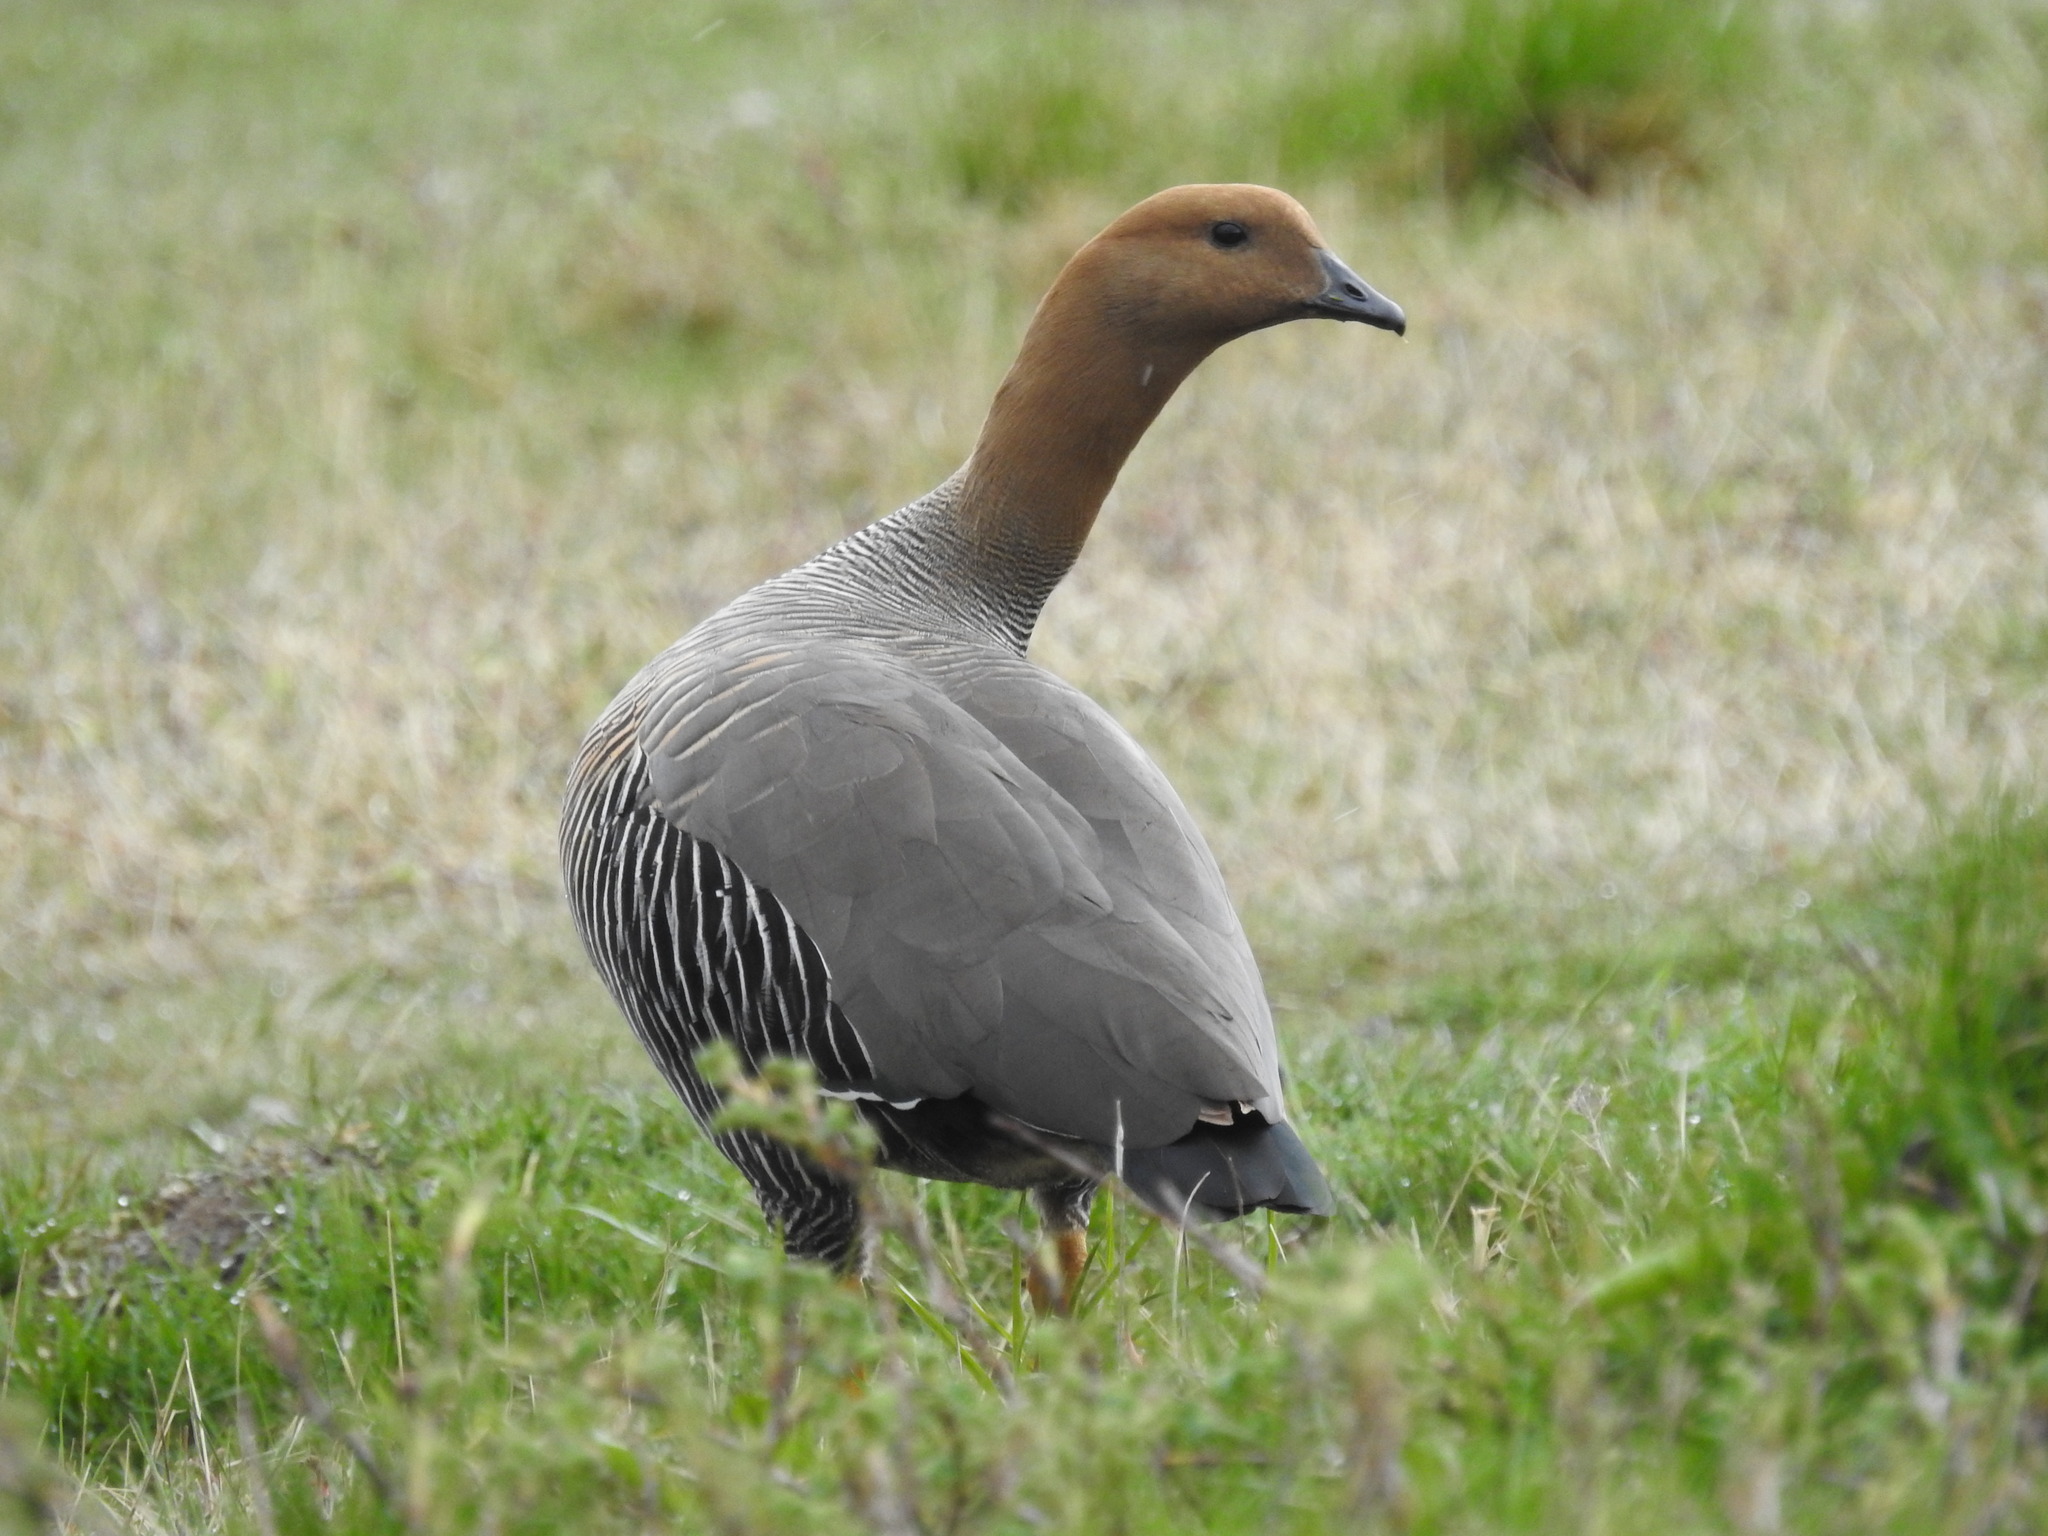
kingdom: Animalia
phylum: Chordata
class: Aves
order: Anseriformes
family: Anatidae
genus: Chloephaga
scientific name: Chloephaga picta
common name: Upland goose
